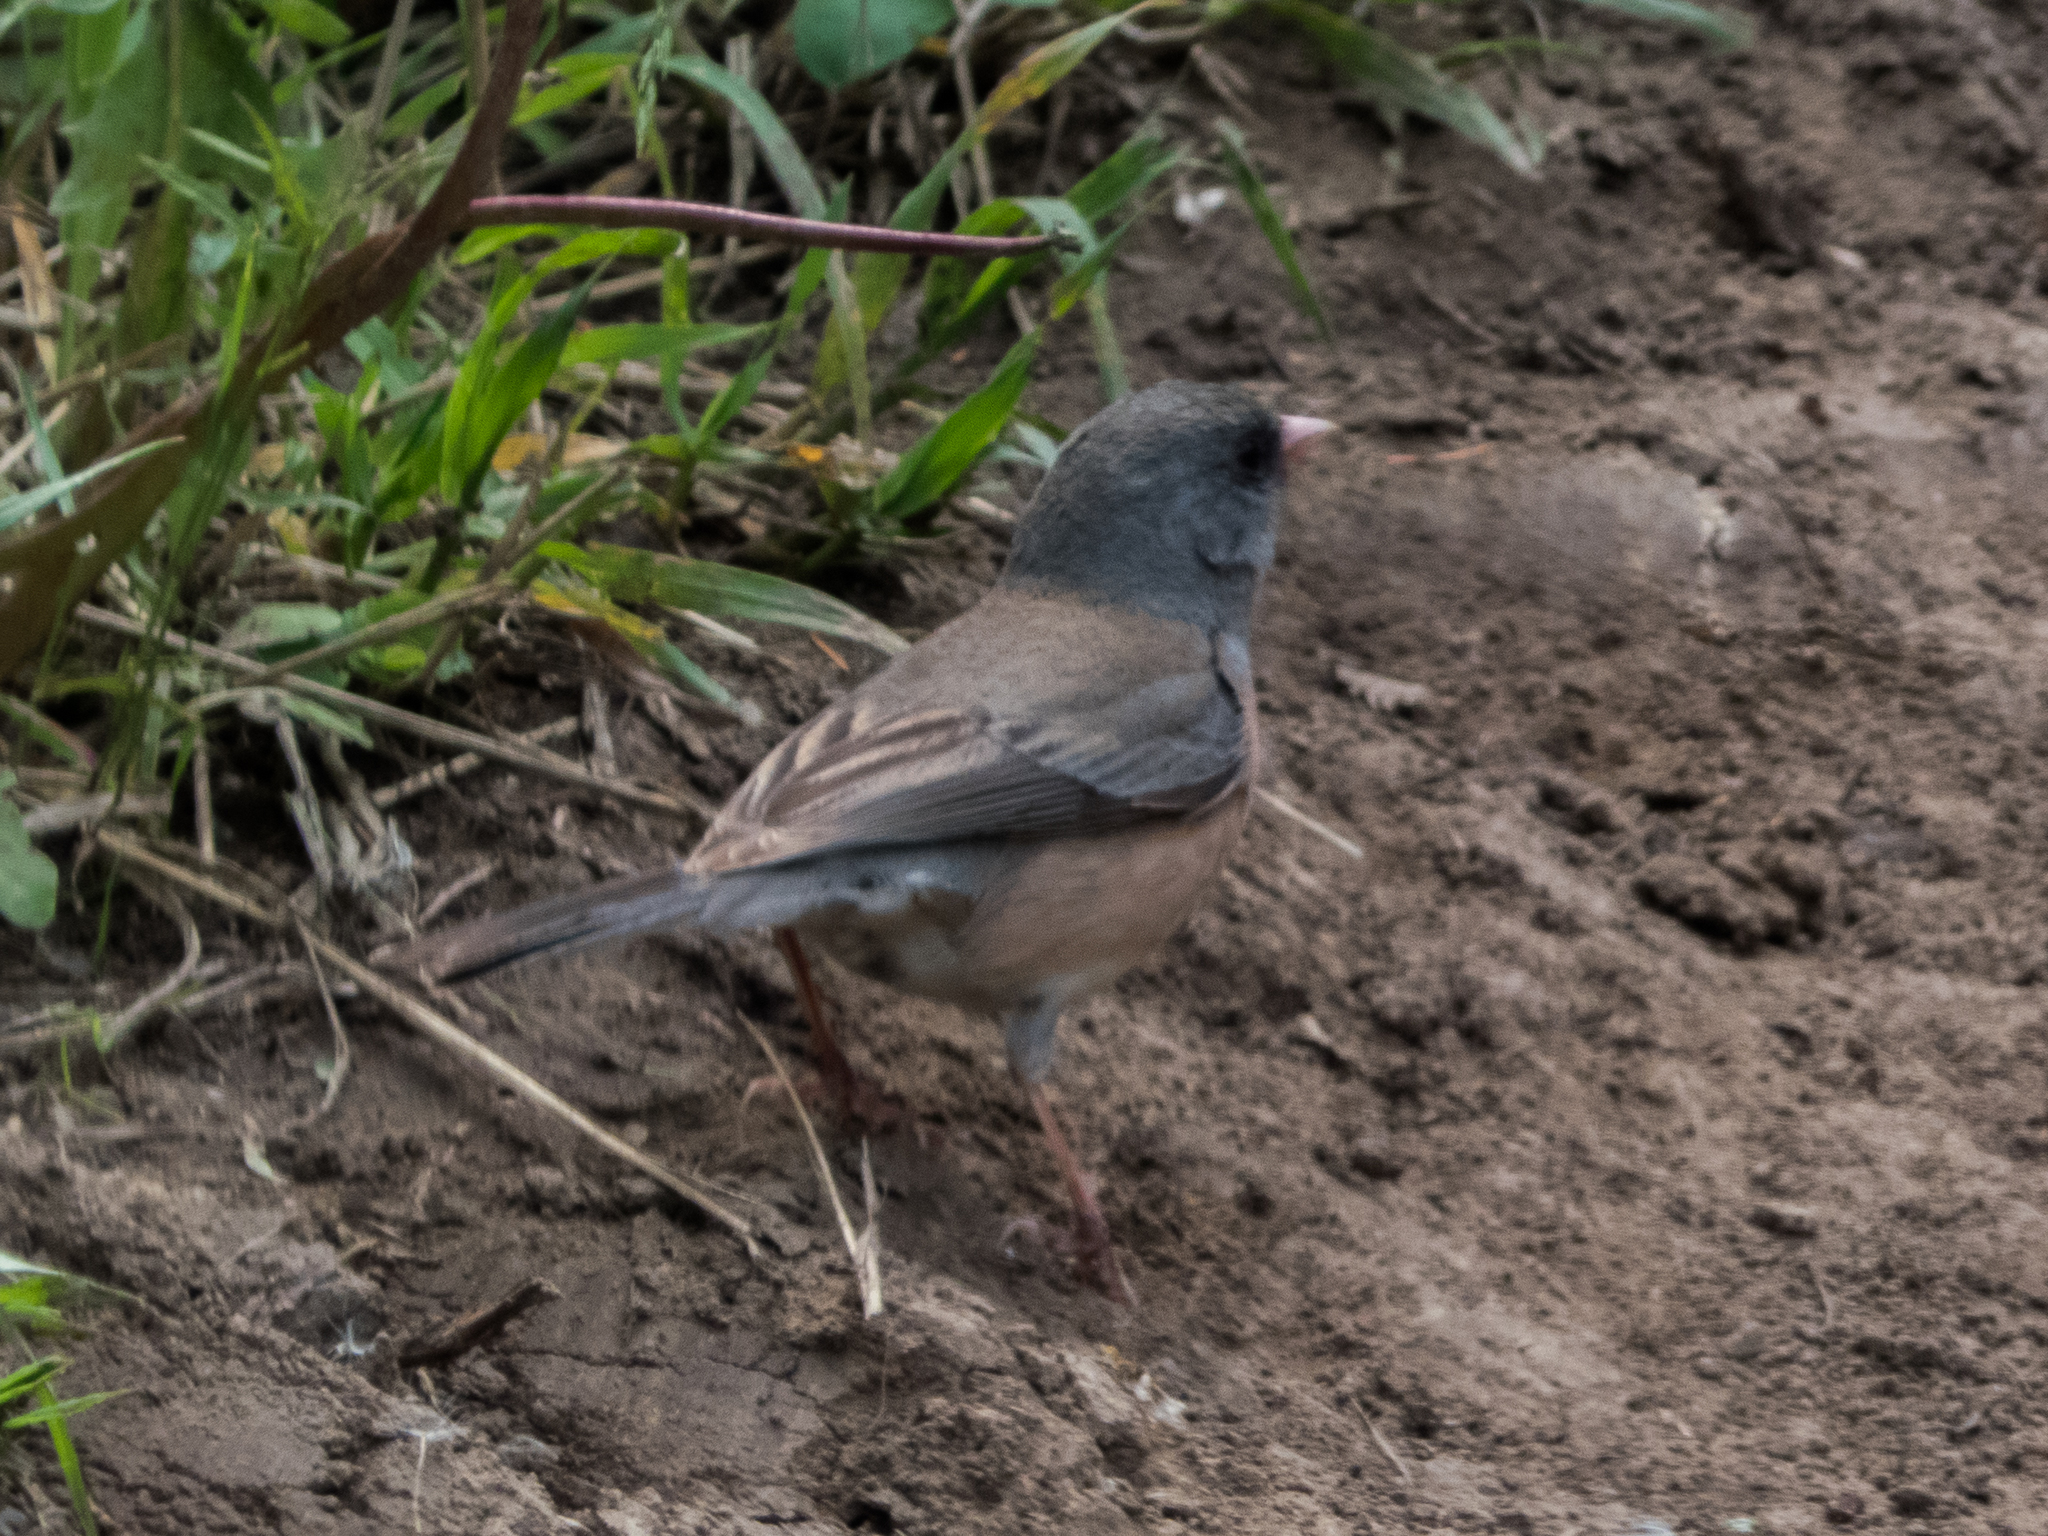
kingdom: Animalia
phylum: Chordata
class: Aves
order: Passeriformes
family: Passerellidae
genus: Junco
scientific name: Junco hyemalis
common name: Dark-eyed junco
